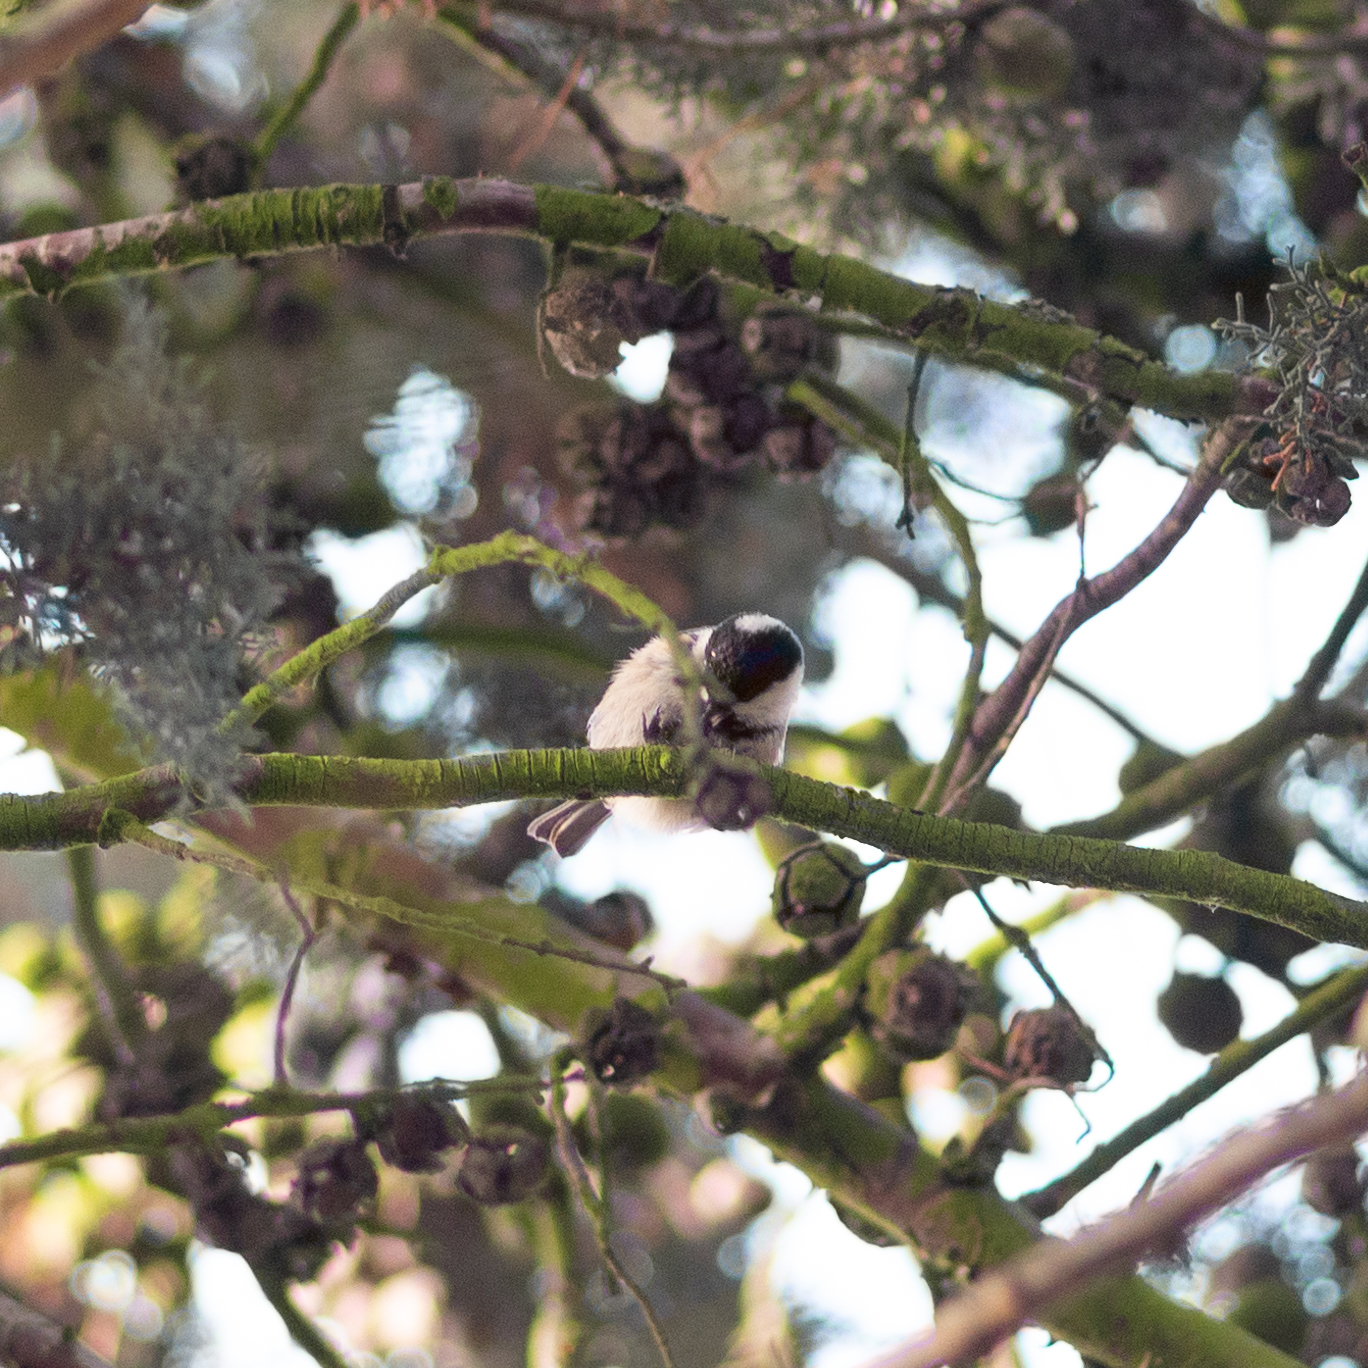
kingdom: Animalia
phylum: Chordata
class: Aves
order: Passeriformes
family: Paridae
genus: Periparus
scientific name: Periparus ater
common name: Coal tit
